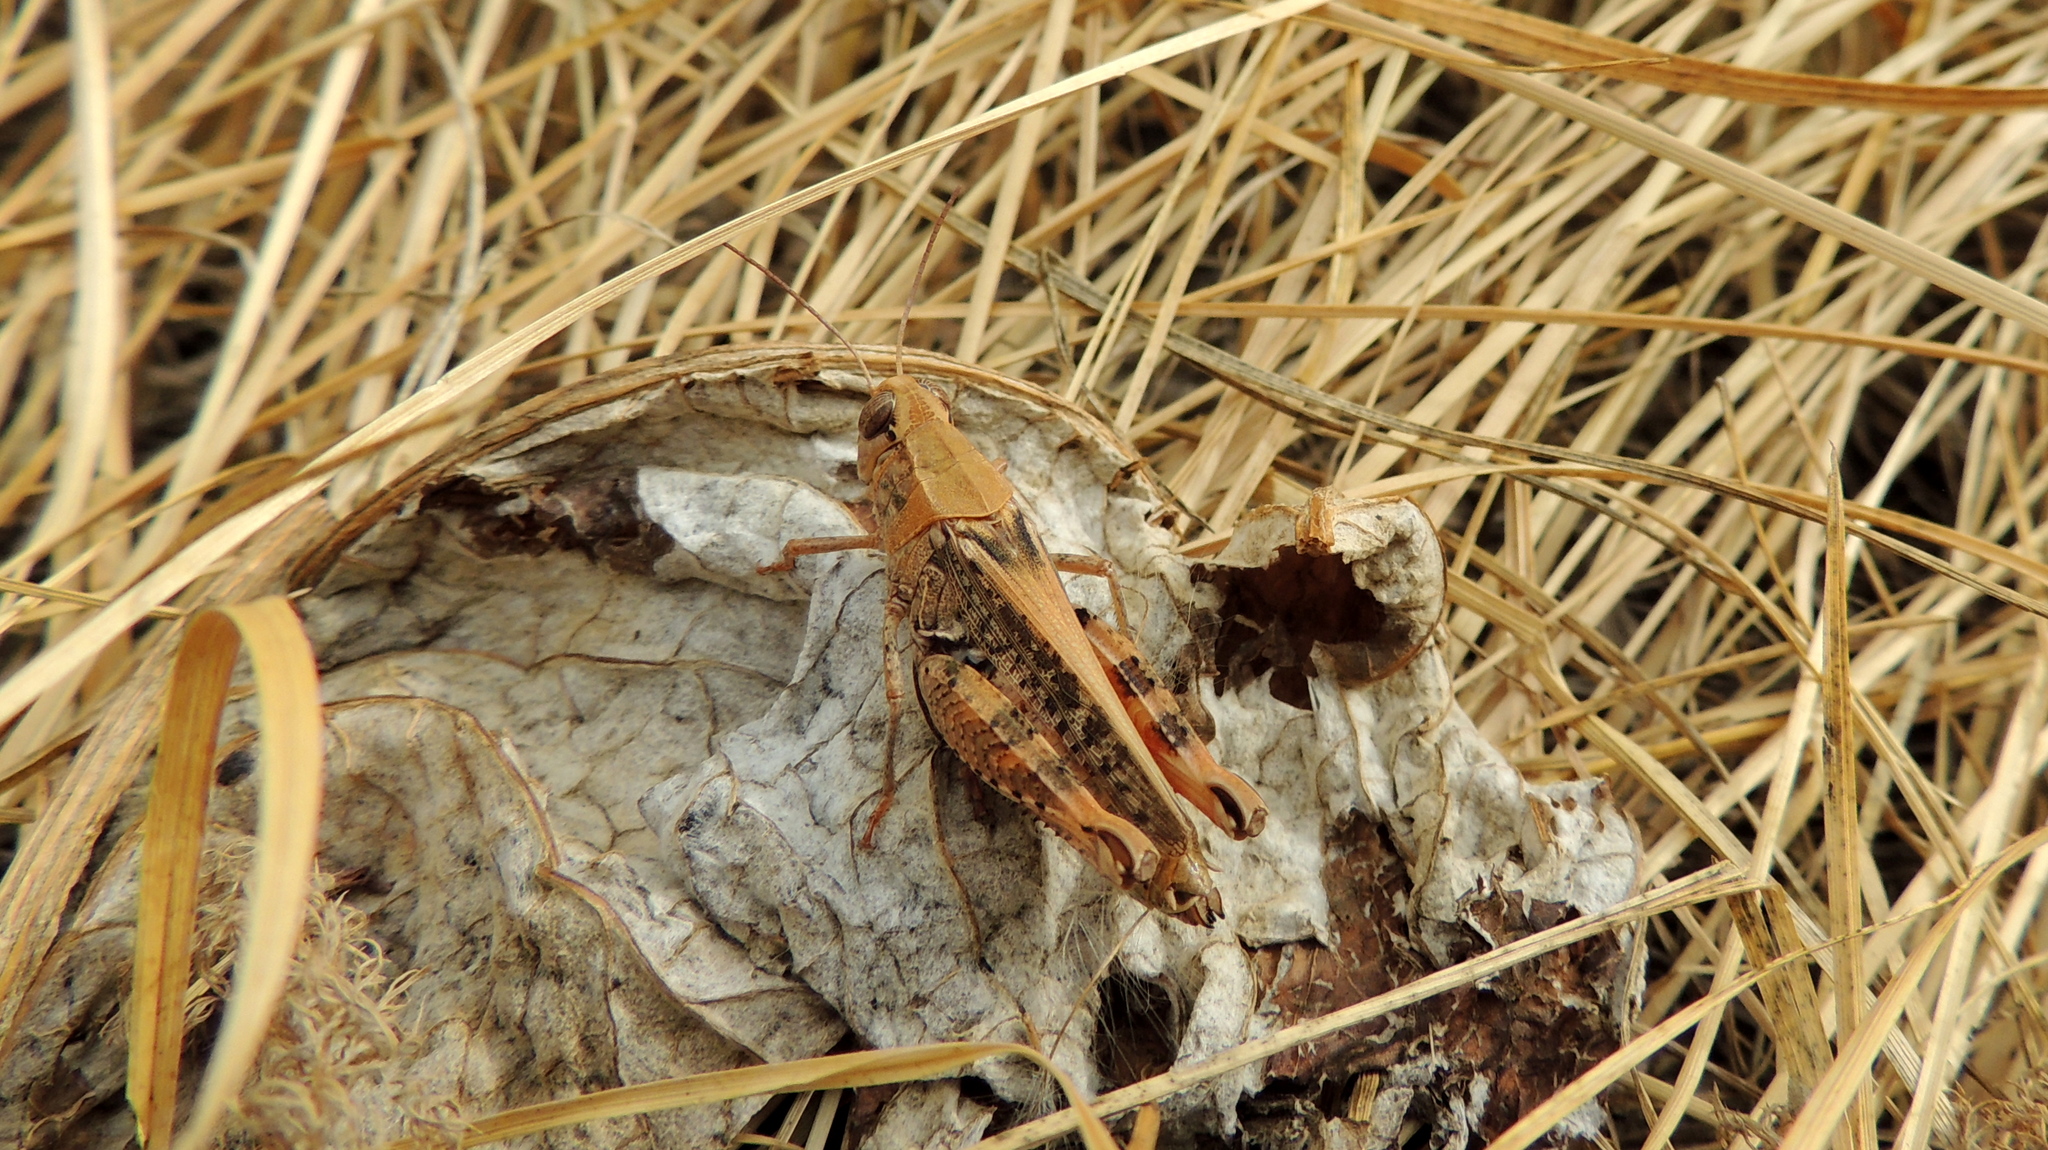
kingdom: Animalia
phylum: Arthropoda
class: Insecta
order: Orthoptera
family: Acrididae
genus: Calliptamus
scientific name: Calliptamus italicus
